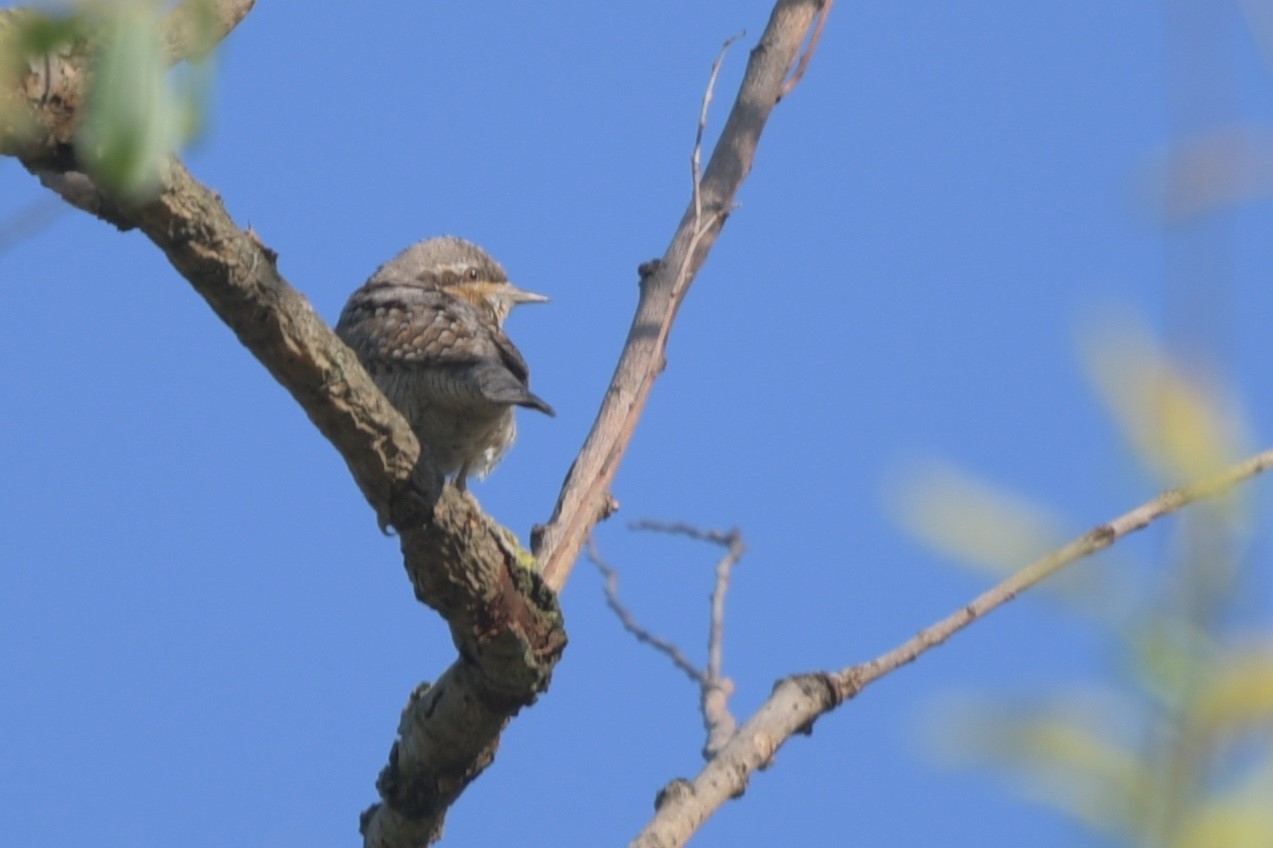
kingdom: Animalia
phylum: Chordata
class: Aves
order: Piciformes
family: Picidae
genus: Jynx
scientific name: Jynx torquilla
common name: Eurasian wryneck
